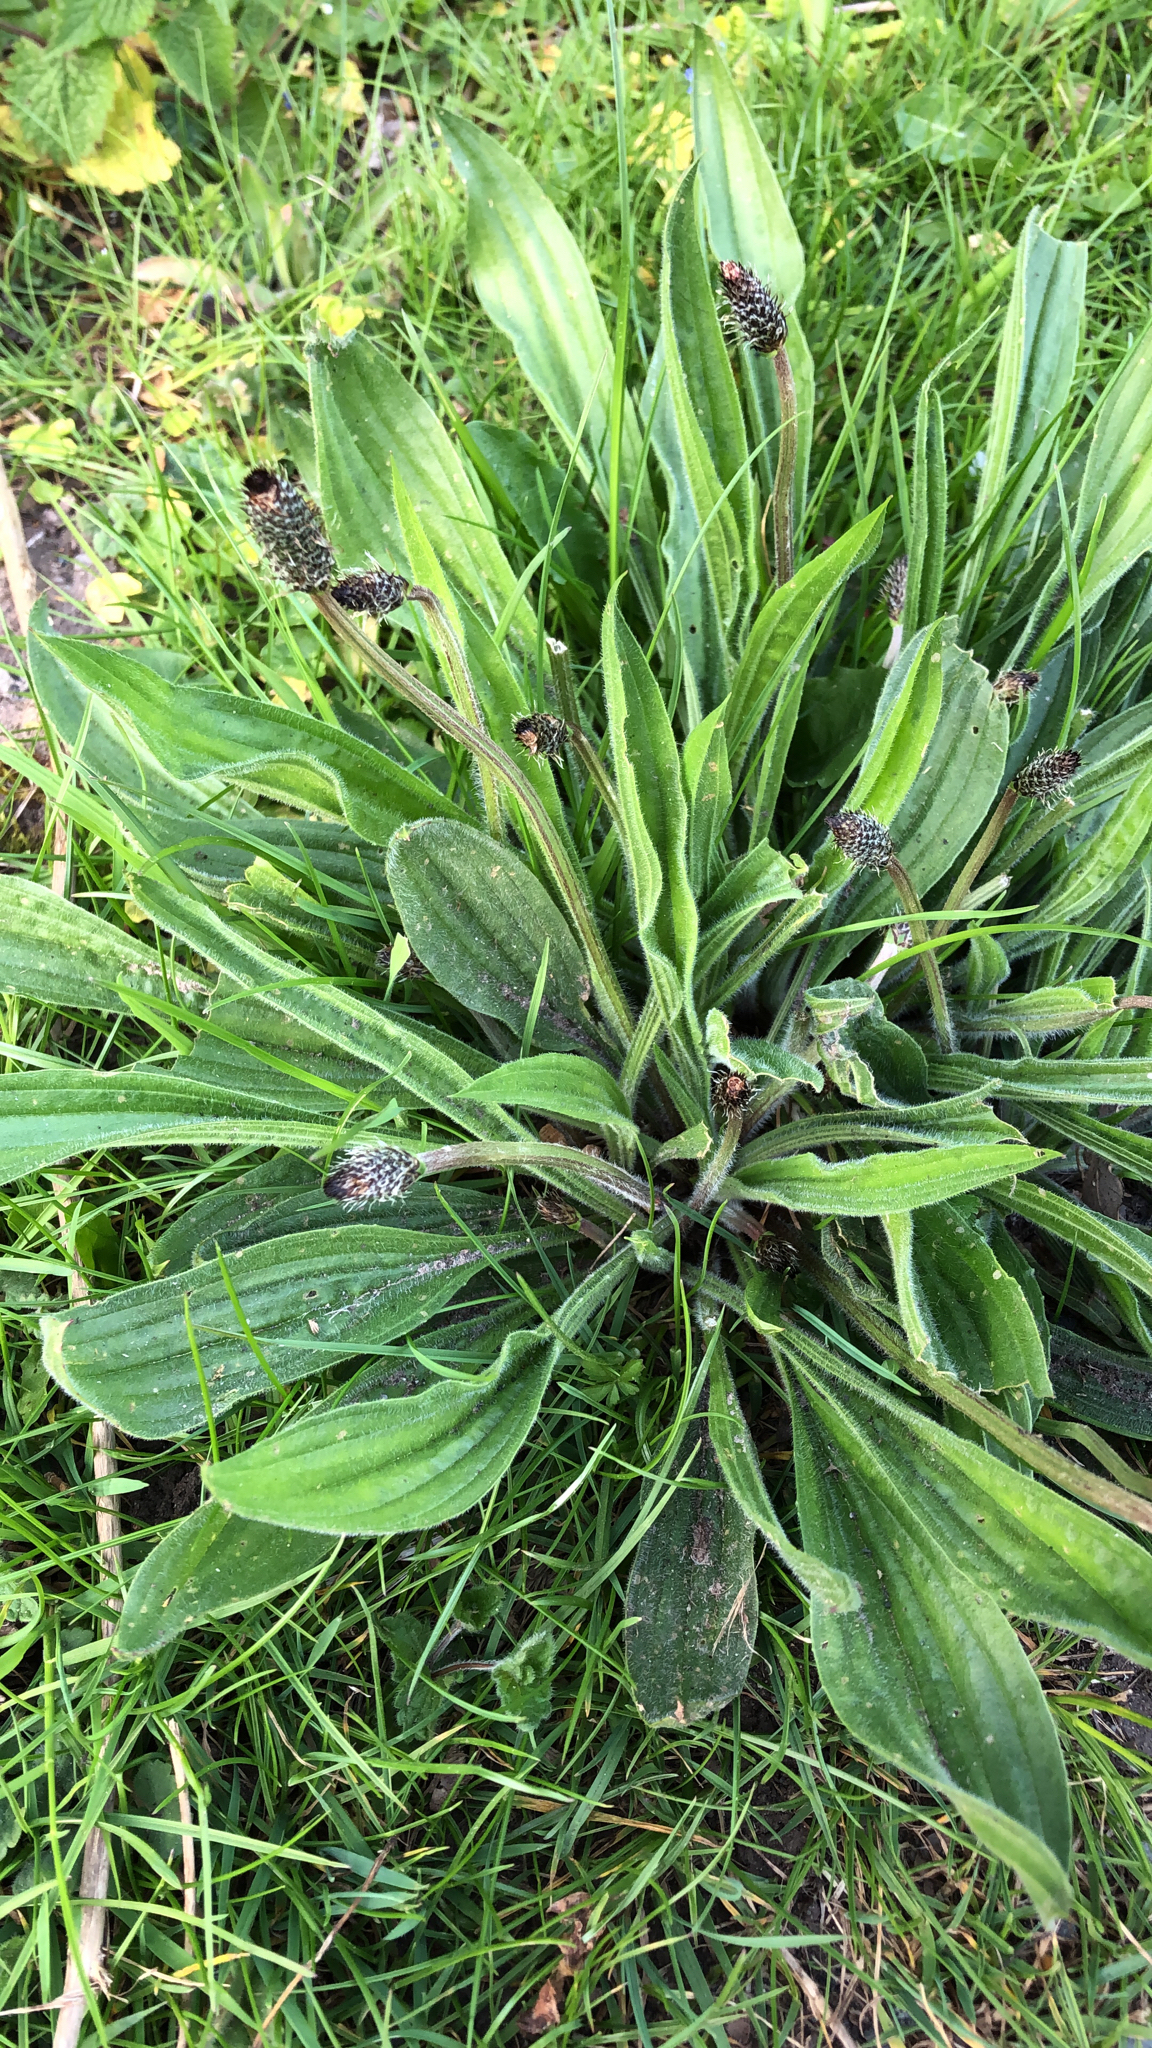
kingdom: Plantae
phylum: Tracheophyta
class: Magnoliopsida
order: Lamiales
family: Plantaginaceae
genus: Plantago
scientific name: Plantago lanceolata
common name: Ribwort plantain
